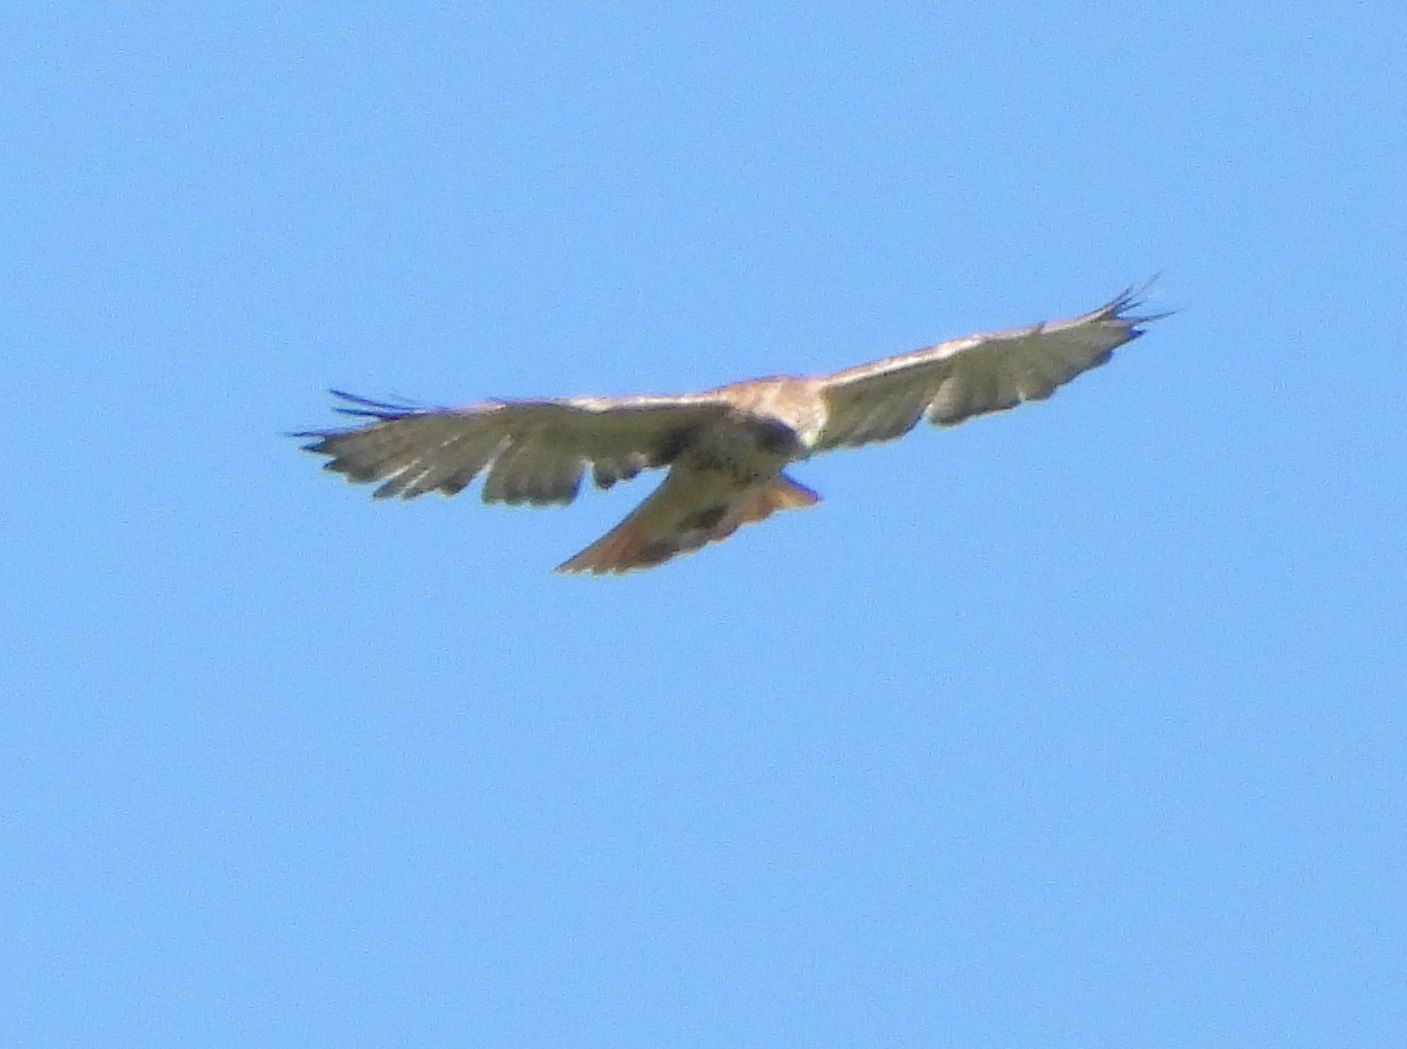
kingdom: Animalia
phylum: Chordata
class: Aves
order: Accipitriformes
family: Accipitridae
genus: Buteo
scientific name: Buteo jamaicensis
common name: Red-tailed hawk
